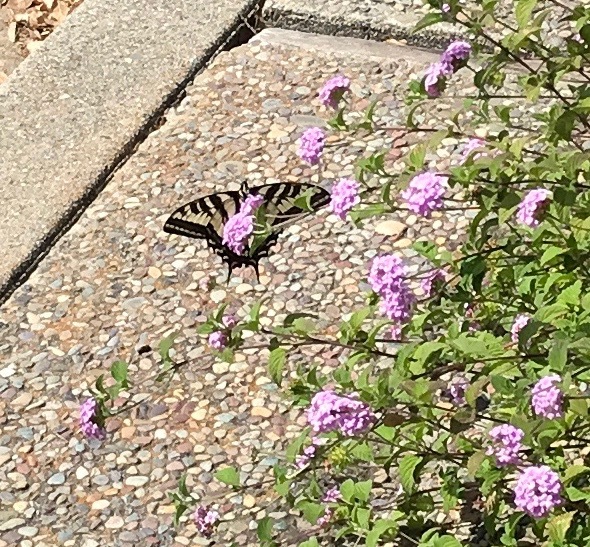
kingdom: Animalia
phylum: Arthropoda
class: Insecta
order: Lepidoptera
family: Papilionidae
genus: Papilio
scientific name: Papilio rutulus
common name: Western tiger swallowtail
